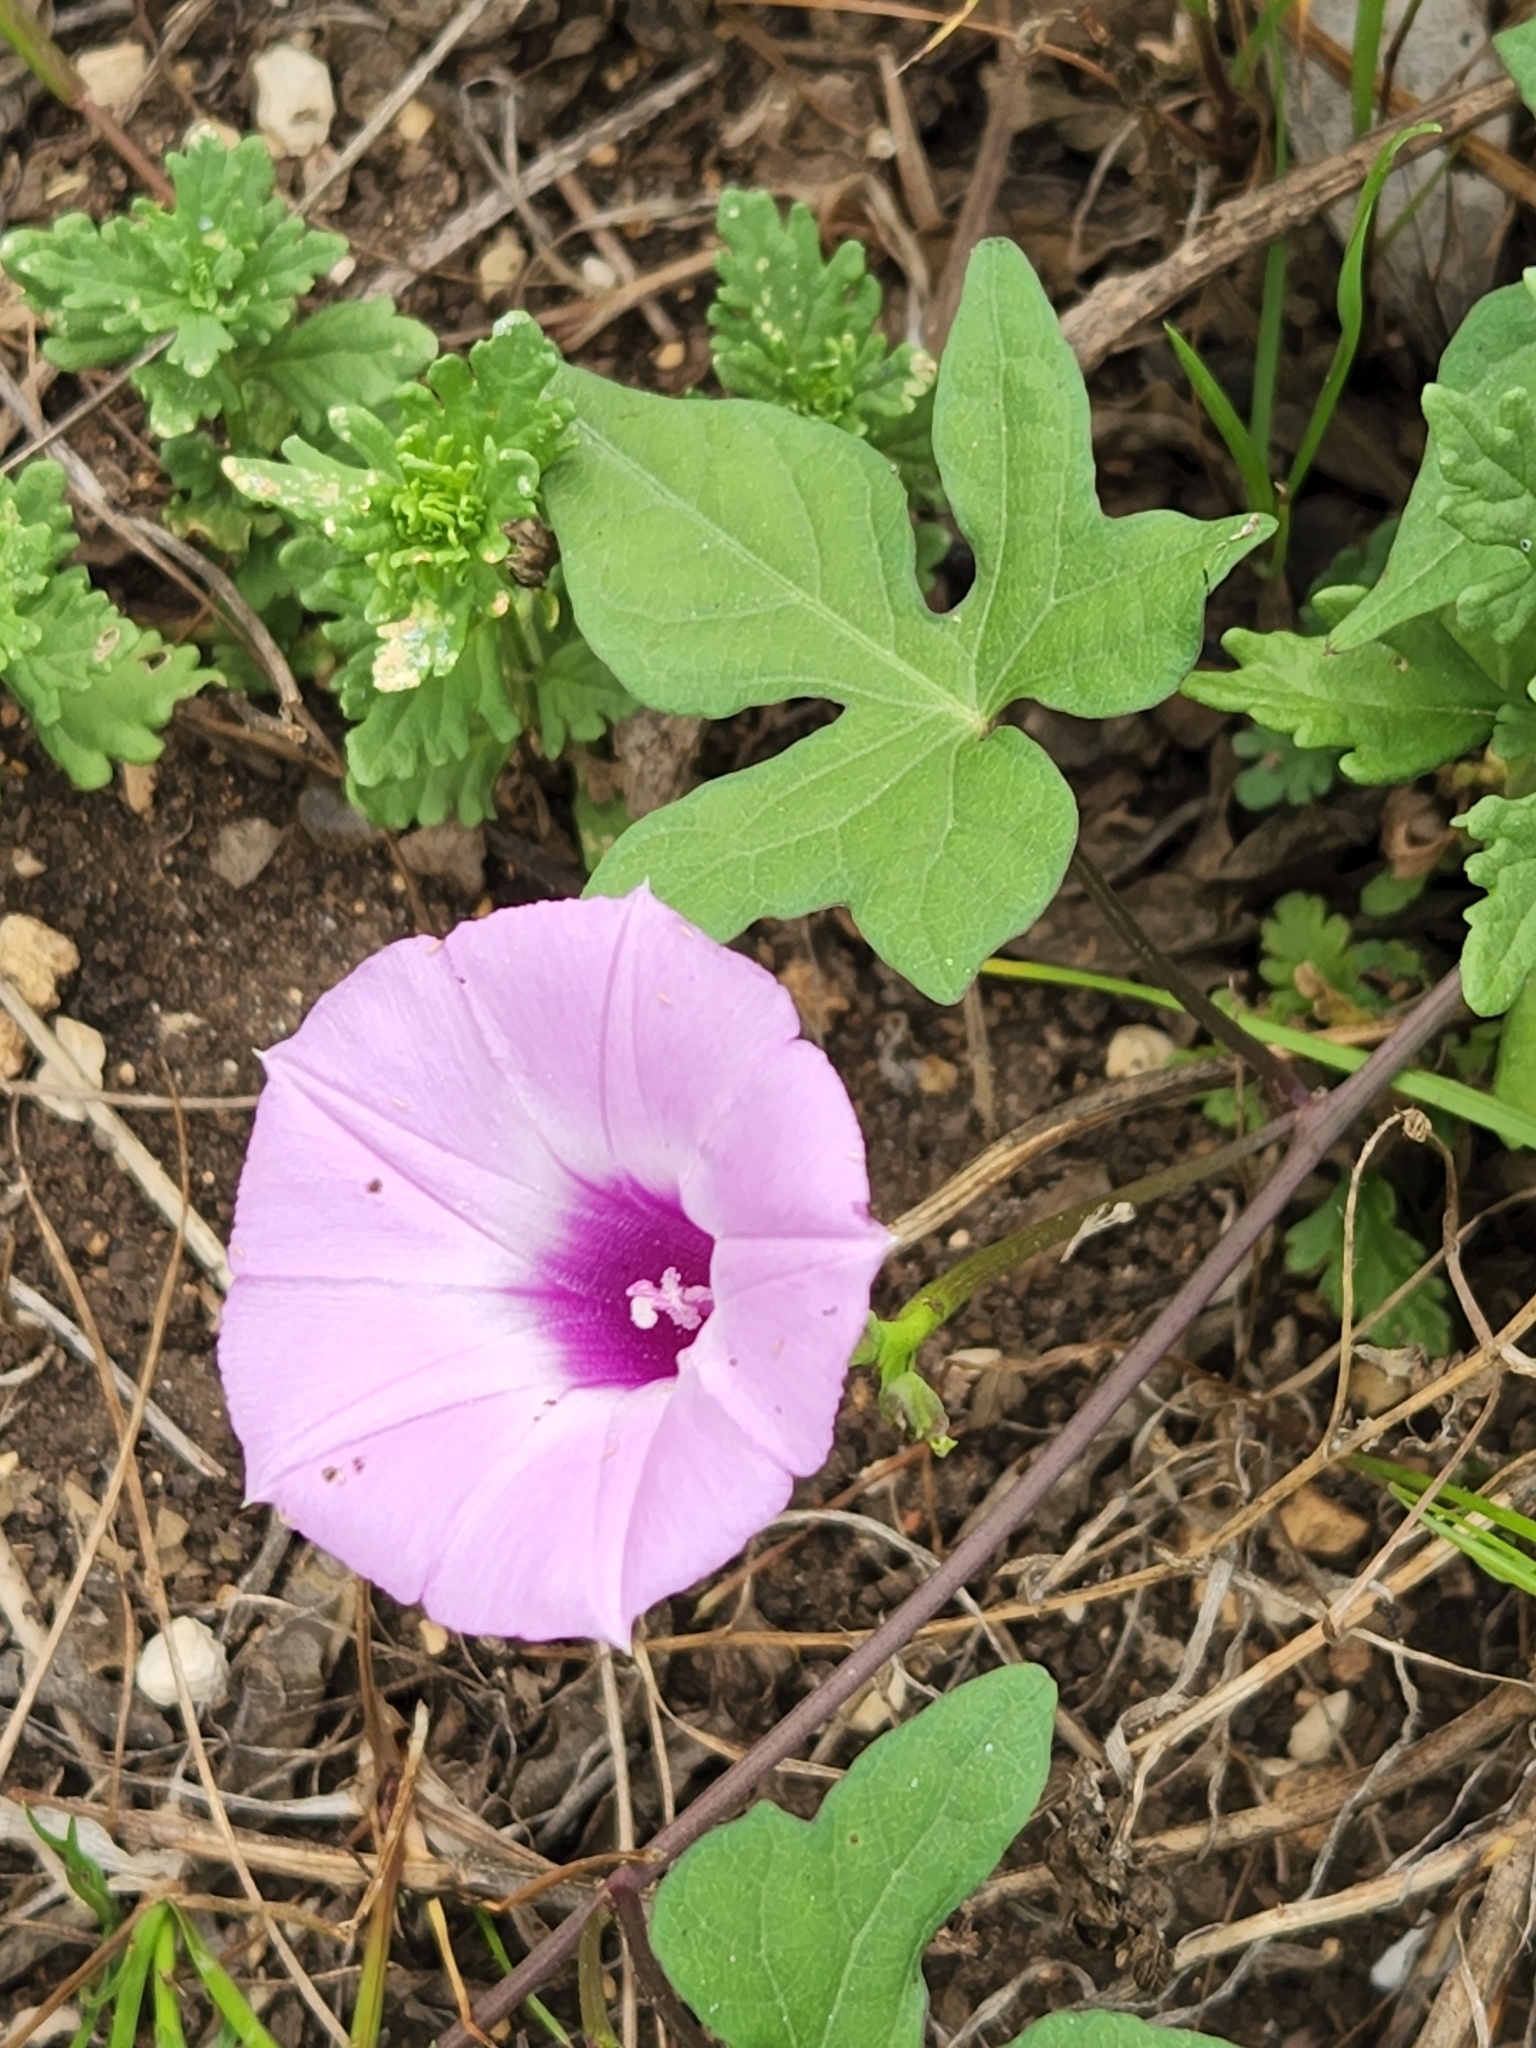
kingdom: Plantae
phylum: Tracheophyta
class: Magnoliopsida
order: Solanales
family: Convolvulaceae
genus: Ipomoea
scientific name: Ipomoea cordatotriloba
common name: Cotton morning glory
